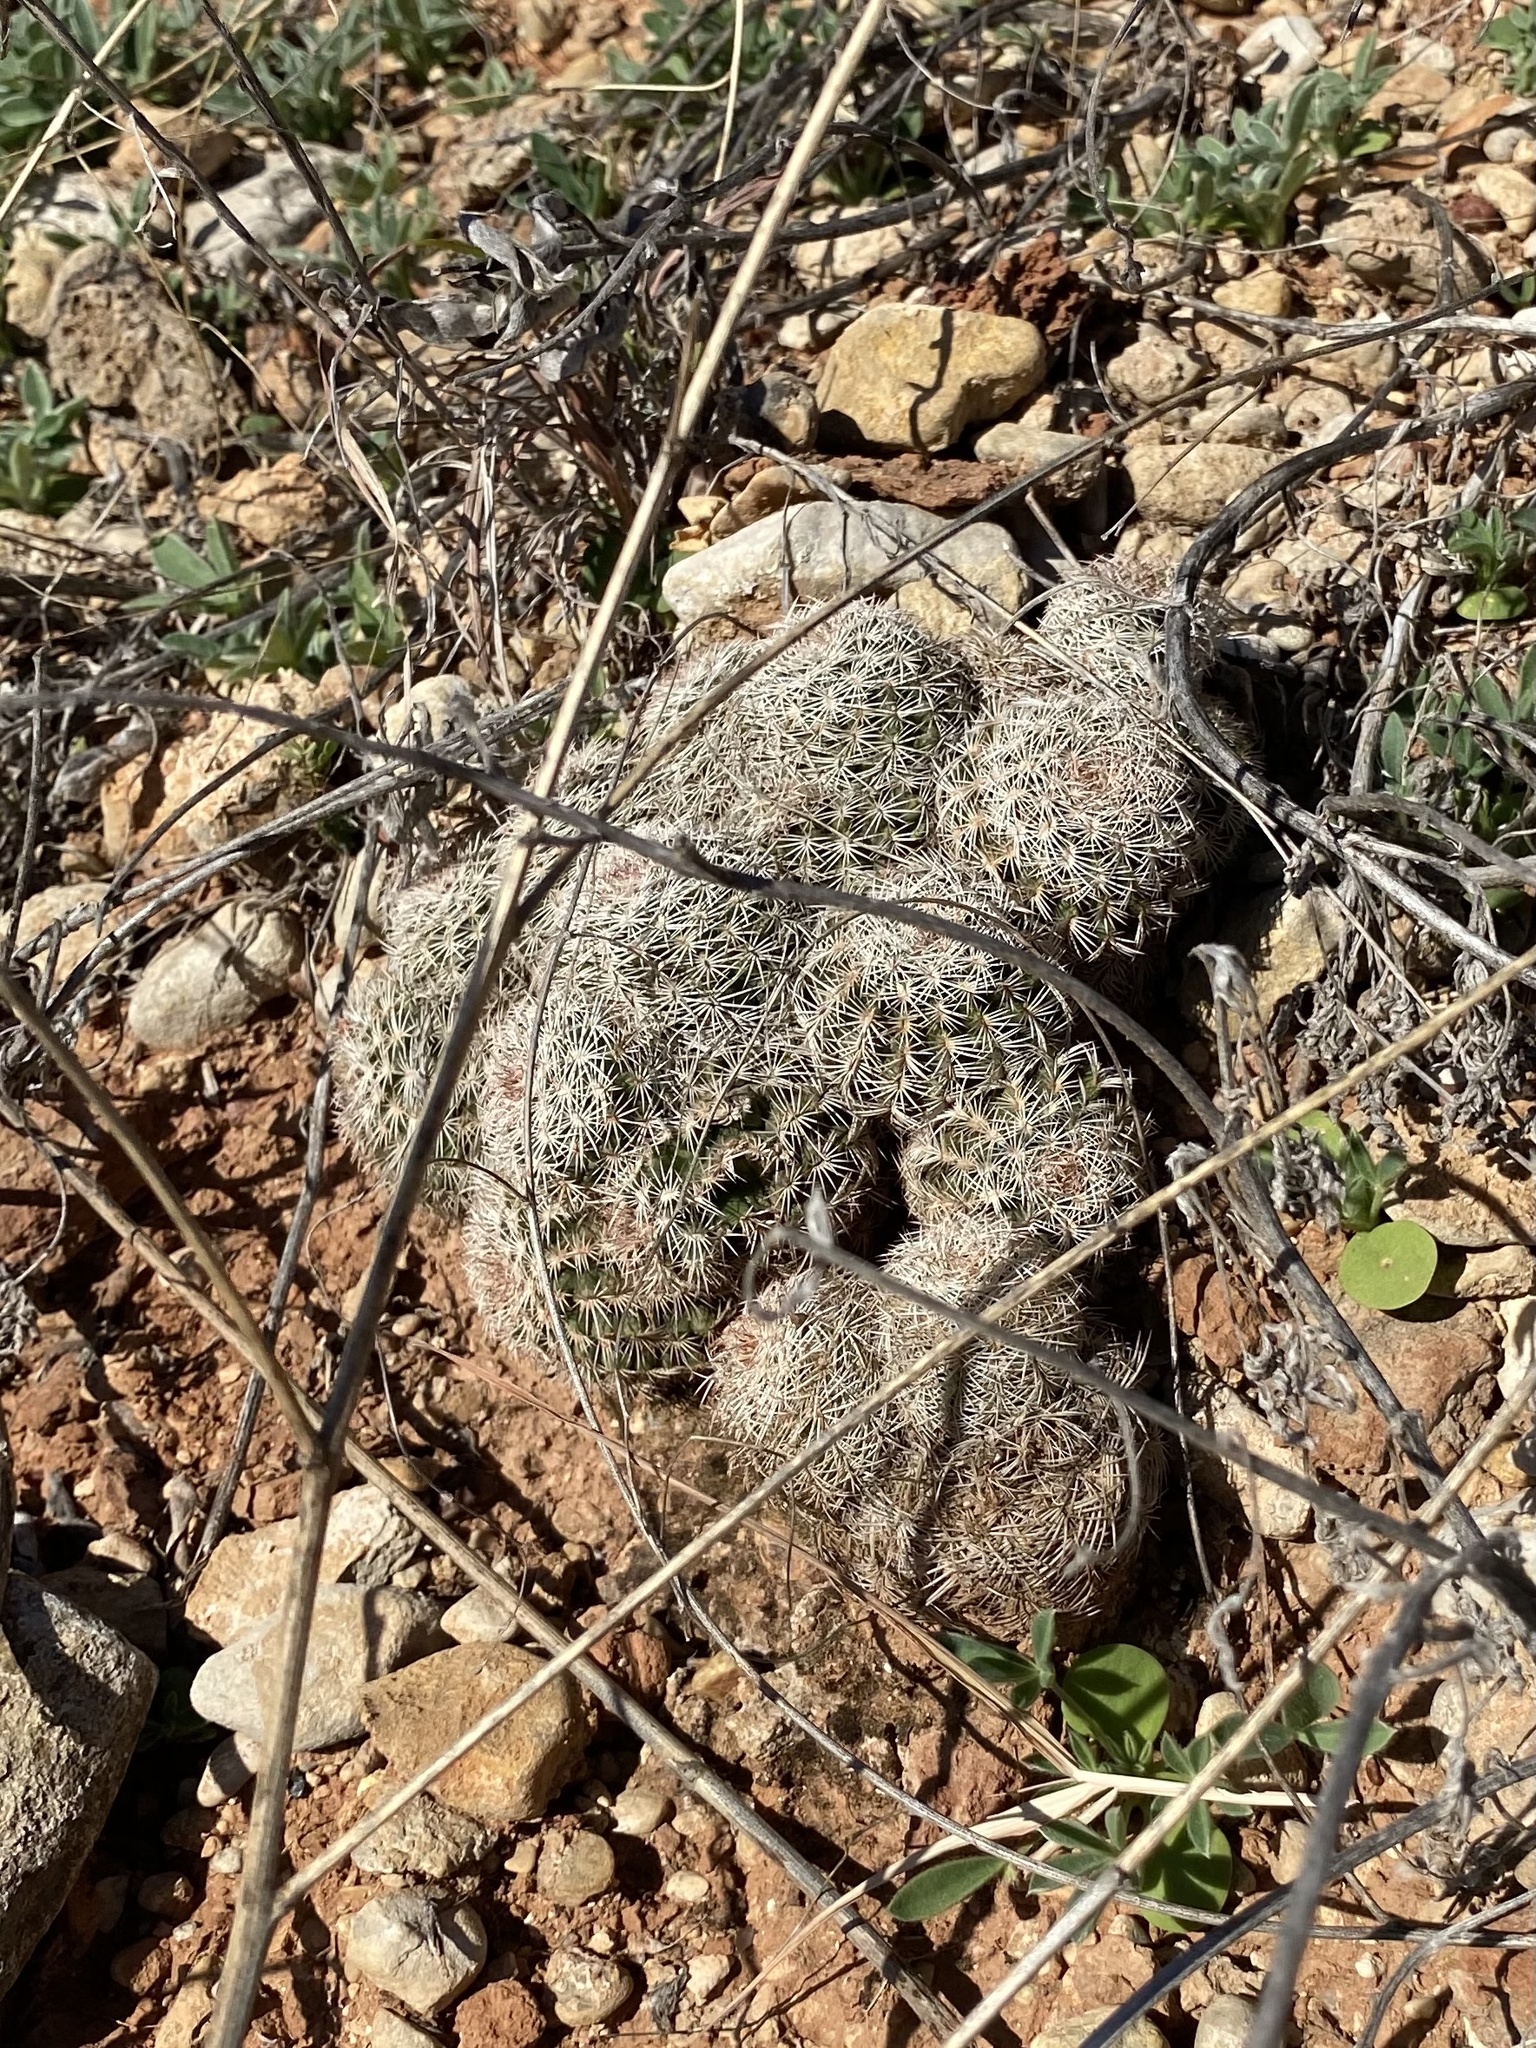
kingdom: Plantae
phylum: Tracheophyta
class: Magnoliopsida
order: Caryophyllales
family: Cactaceae
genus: Echinocereus
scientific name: Echinocereus reichenbachii
